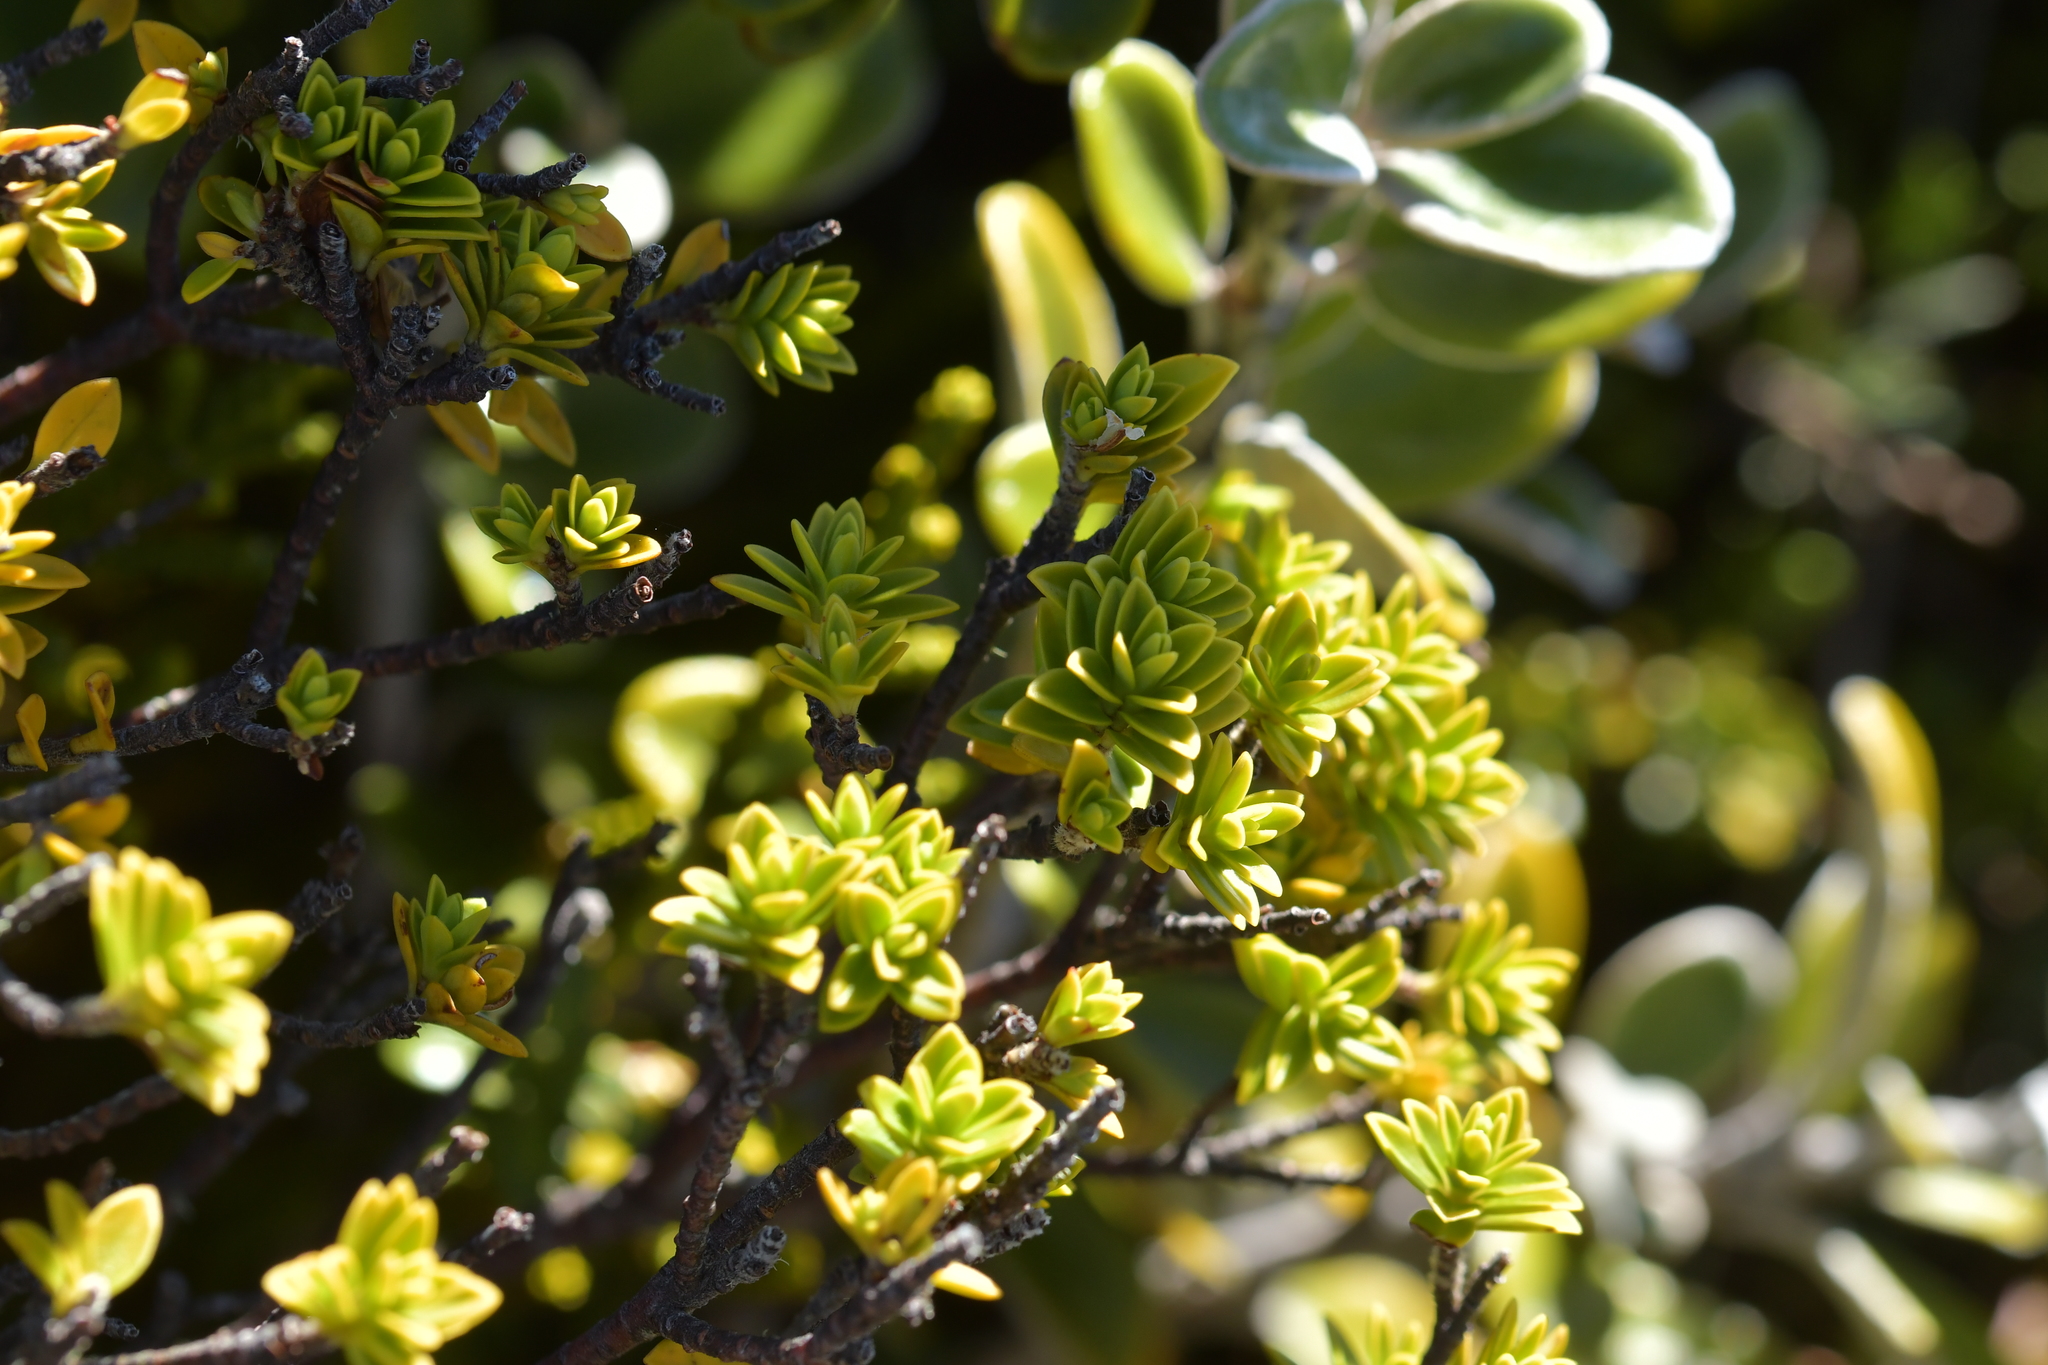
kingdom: Plantae
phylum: Tracheophyta
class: Magnoliopsida
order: Malvales
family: Thymelaeaceae
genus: Pimelea
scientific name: Pimelea buxifolia
